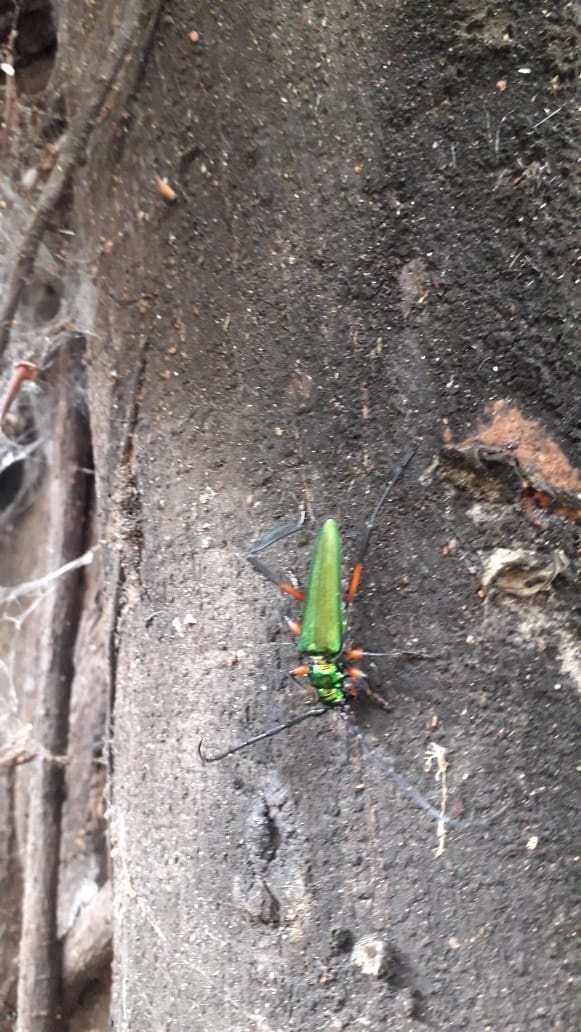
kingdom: Animalia
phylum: Arthropoda
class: Insecta
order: Coleoptera
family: Cerambycidae
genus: Callichroma
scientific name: Callichroma holochlorum
